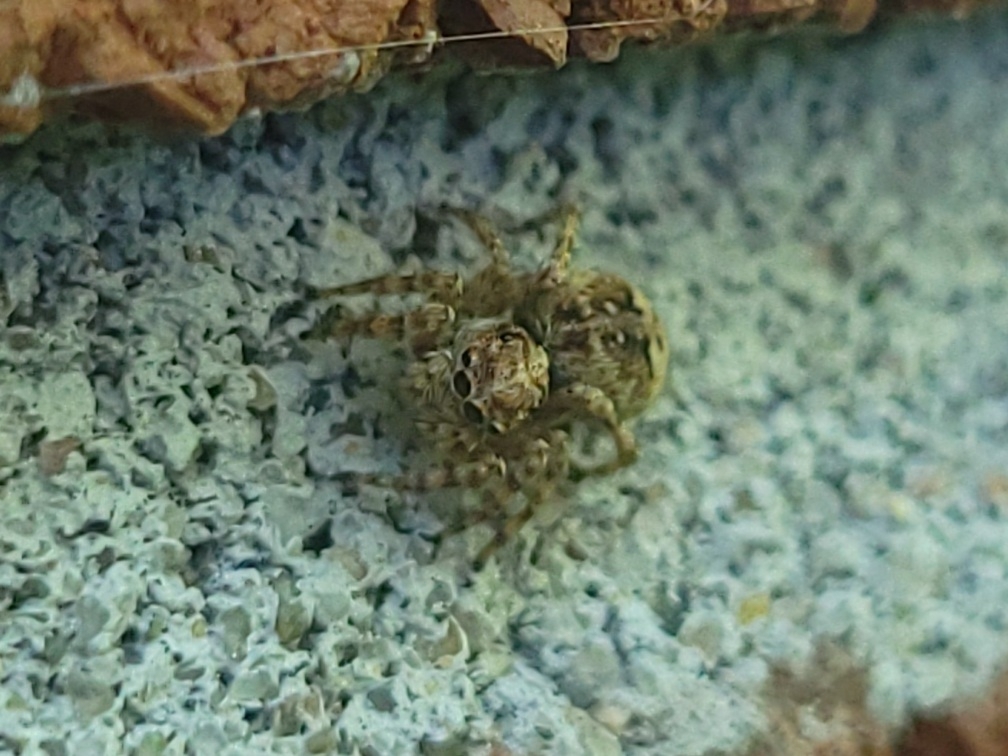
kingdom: Animalia
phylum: Arthropoda
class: Arachnida
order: Araneae
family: Salticidae
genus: Attulus
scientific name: Attulus fasciger
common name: Asiatic wall jumping spider
